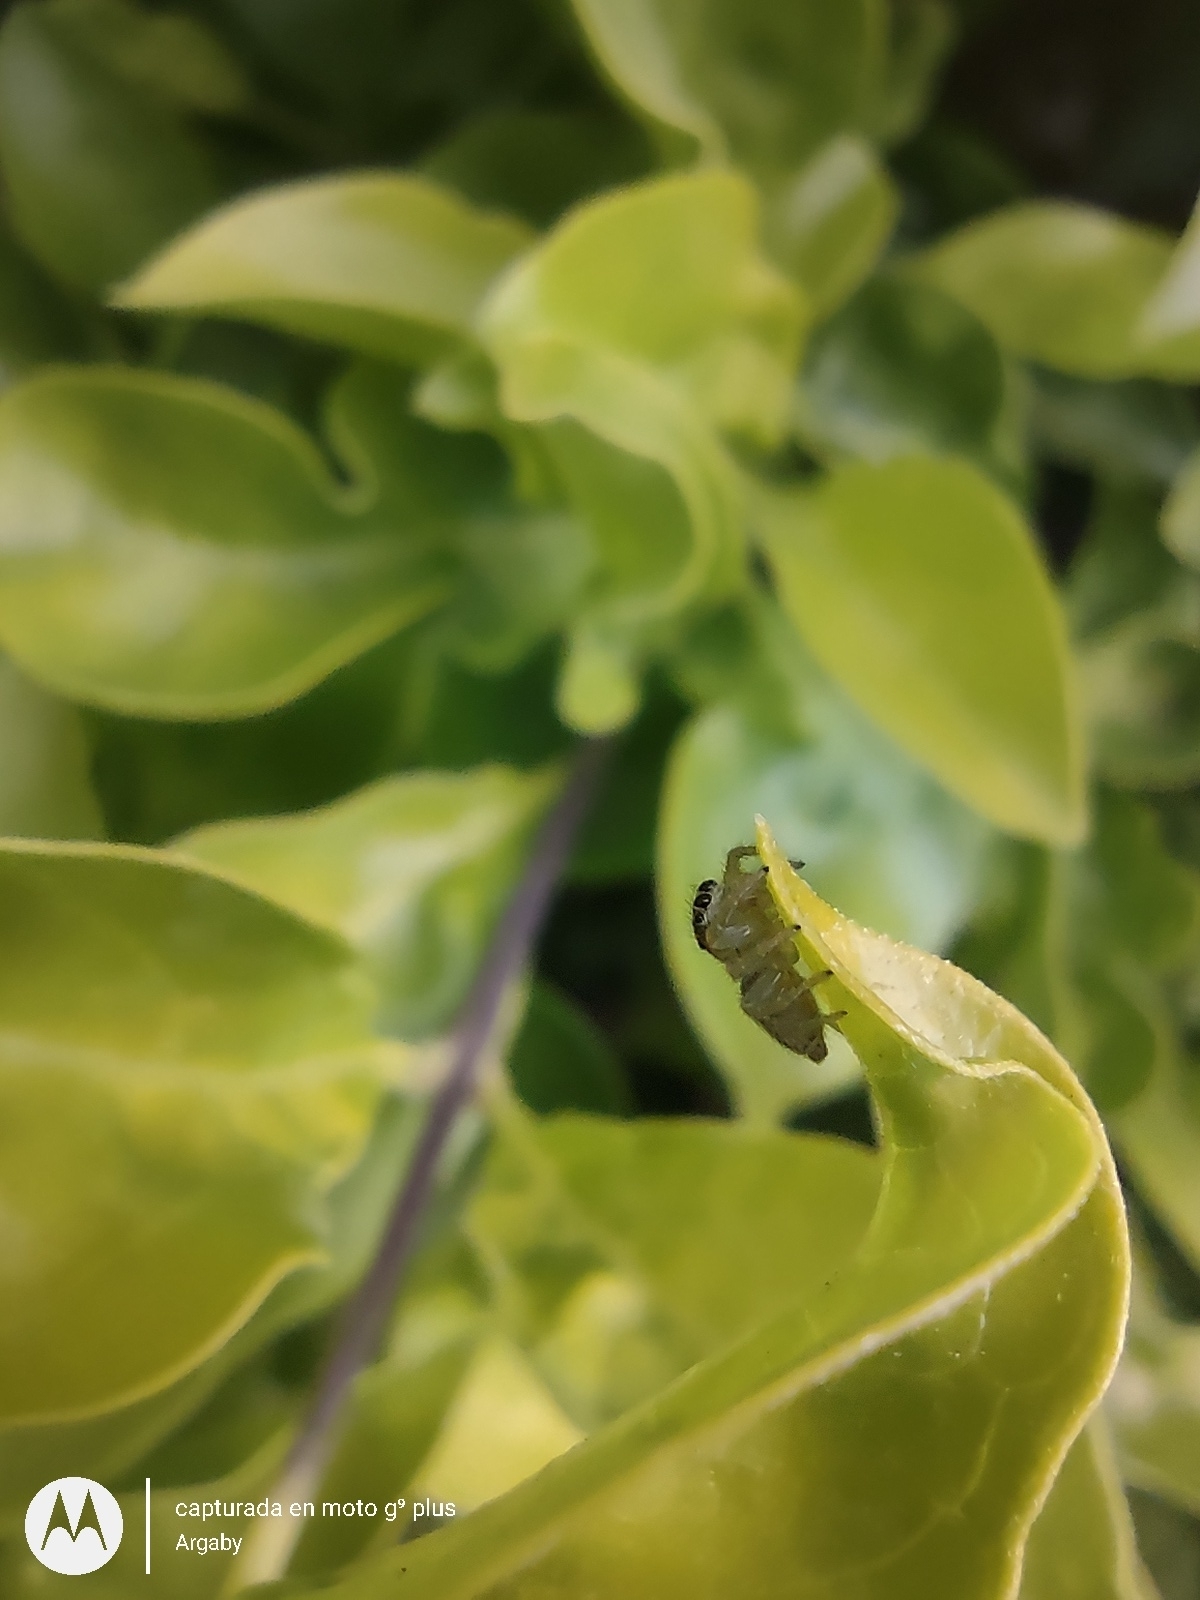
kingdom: Animalia
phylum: Arthropoda
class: Arachnida
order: Araneae
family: Salticidae
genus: Megafreya
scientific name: Megafreya sutrix
